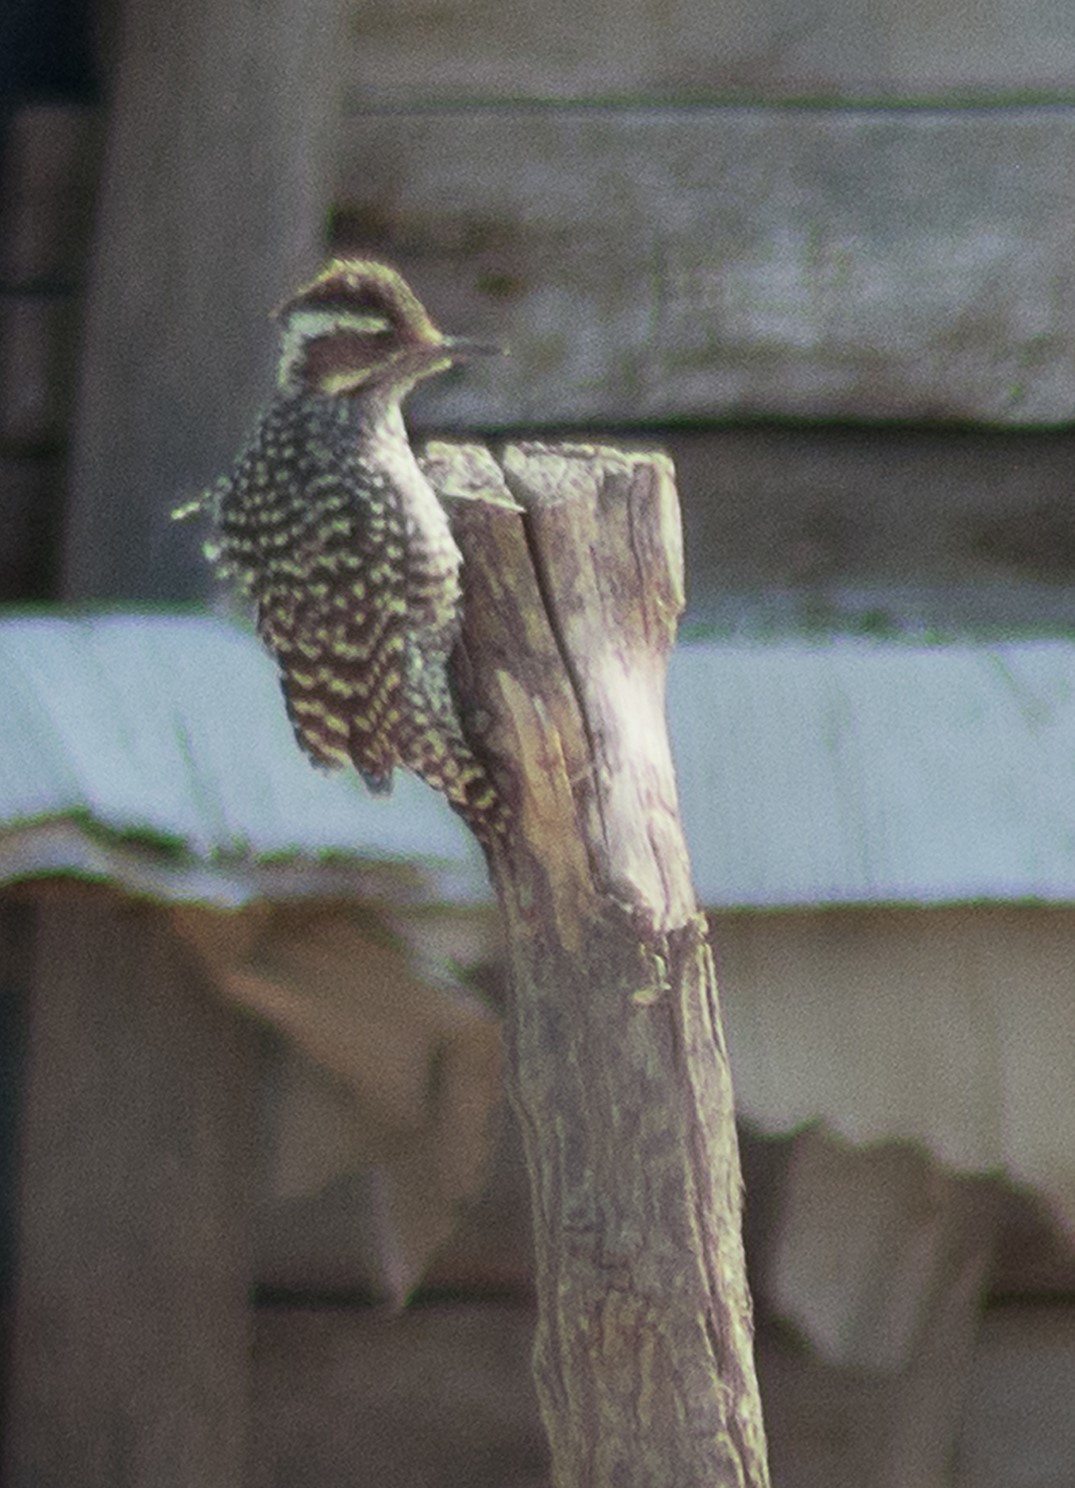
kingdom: Animalia
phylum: Chordata
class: Aves
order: Piciformes
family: Picidae
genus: Veniliornis
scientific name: Veniliornis mixtus
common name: Checkered woodpecker
